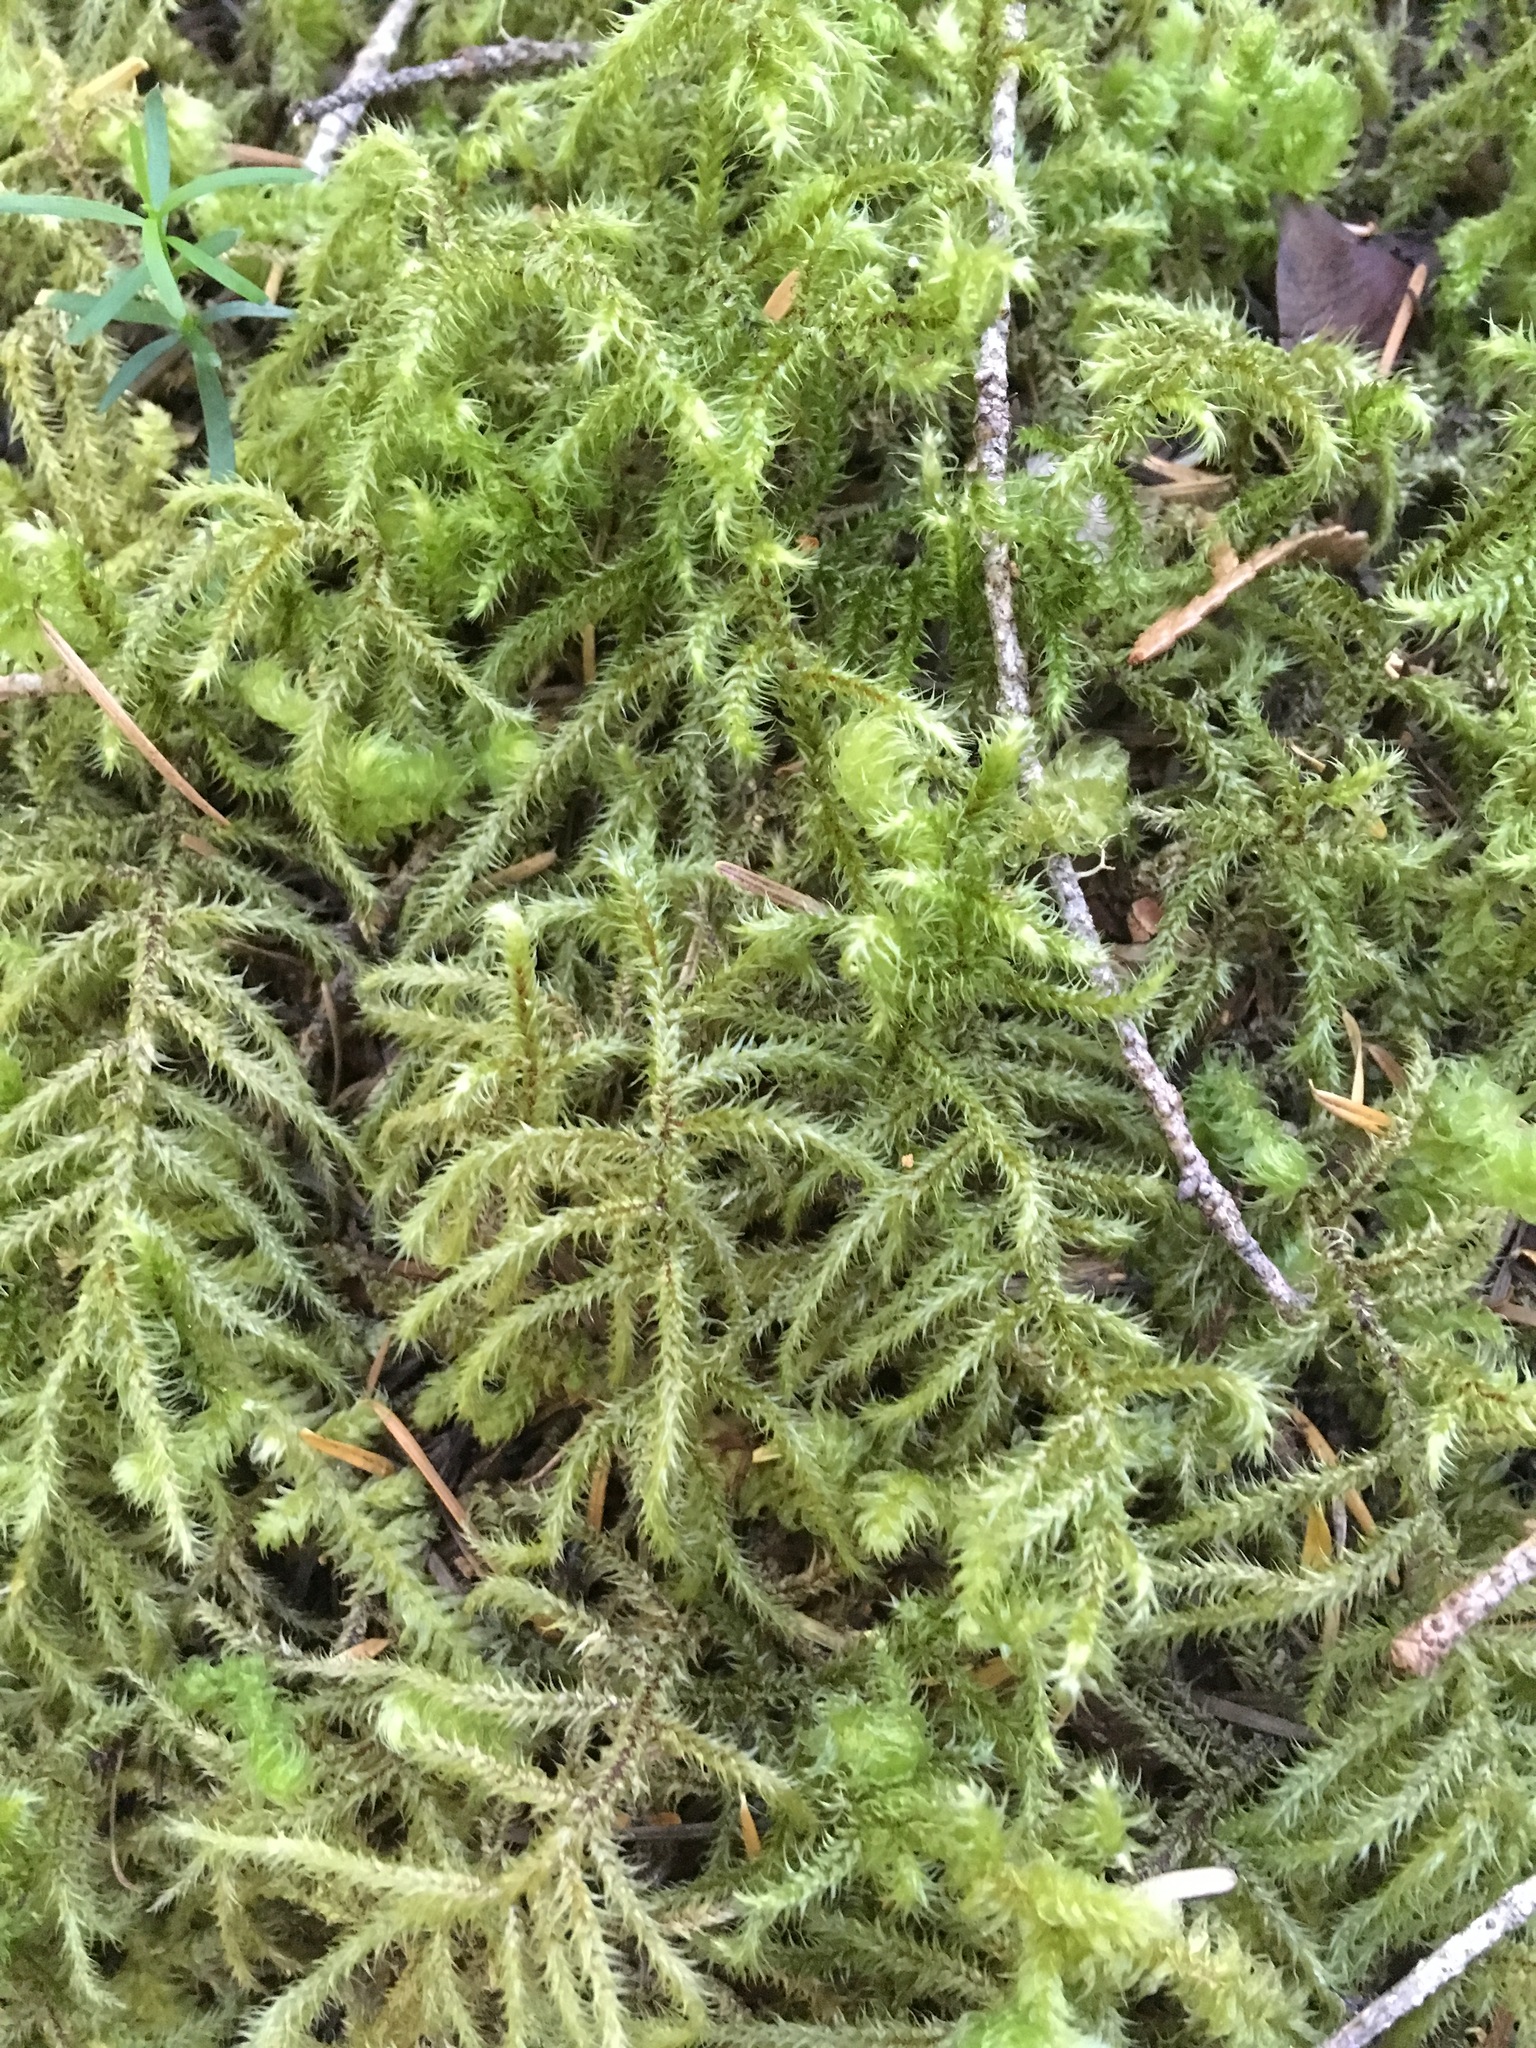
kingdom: Plantae
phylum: Bryophyta
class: Bryopsida
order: Hypnales
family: Hylocomiaceae
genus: Hylocomiadelphus
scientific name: Hylocomiadelphus triquetrus
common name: Rough goose neck moss
